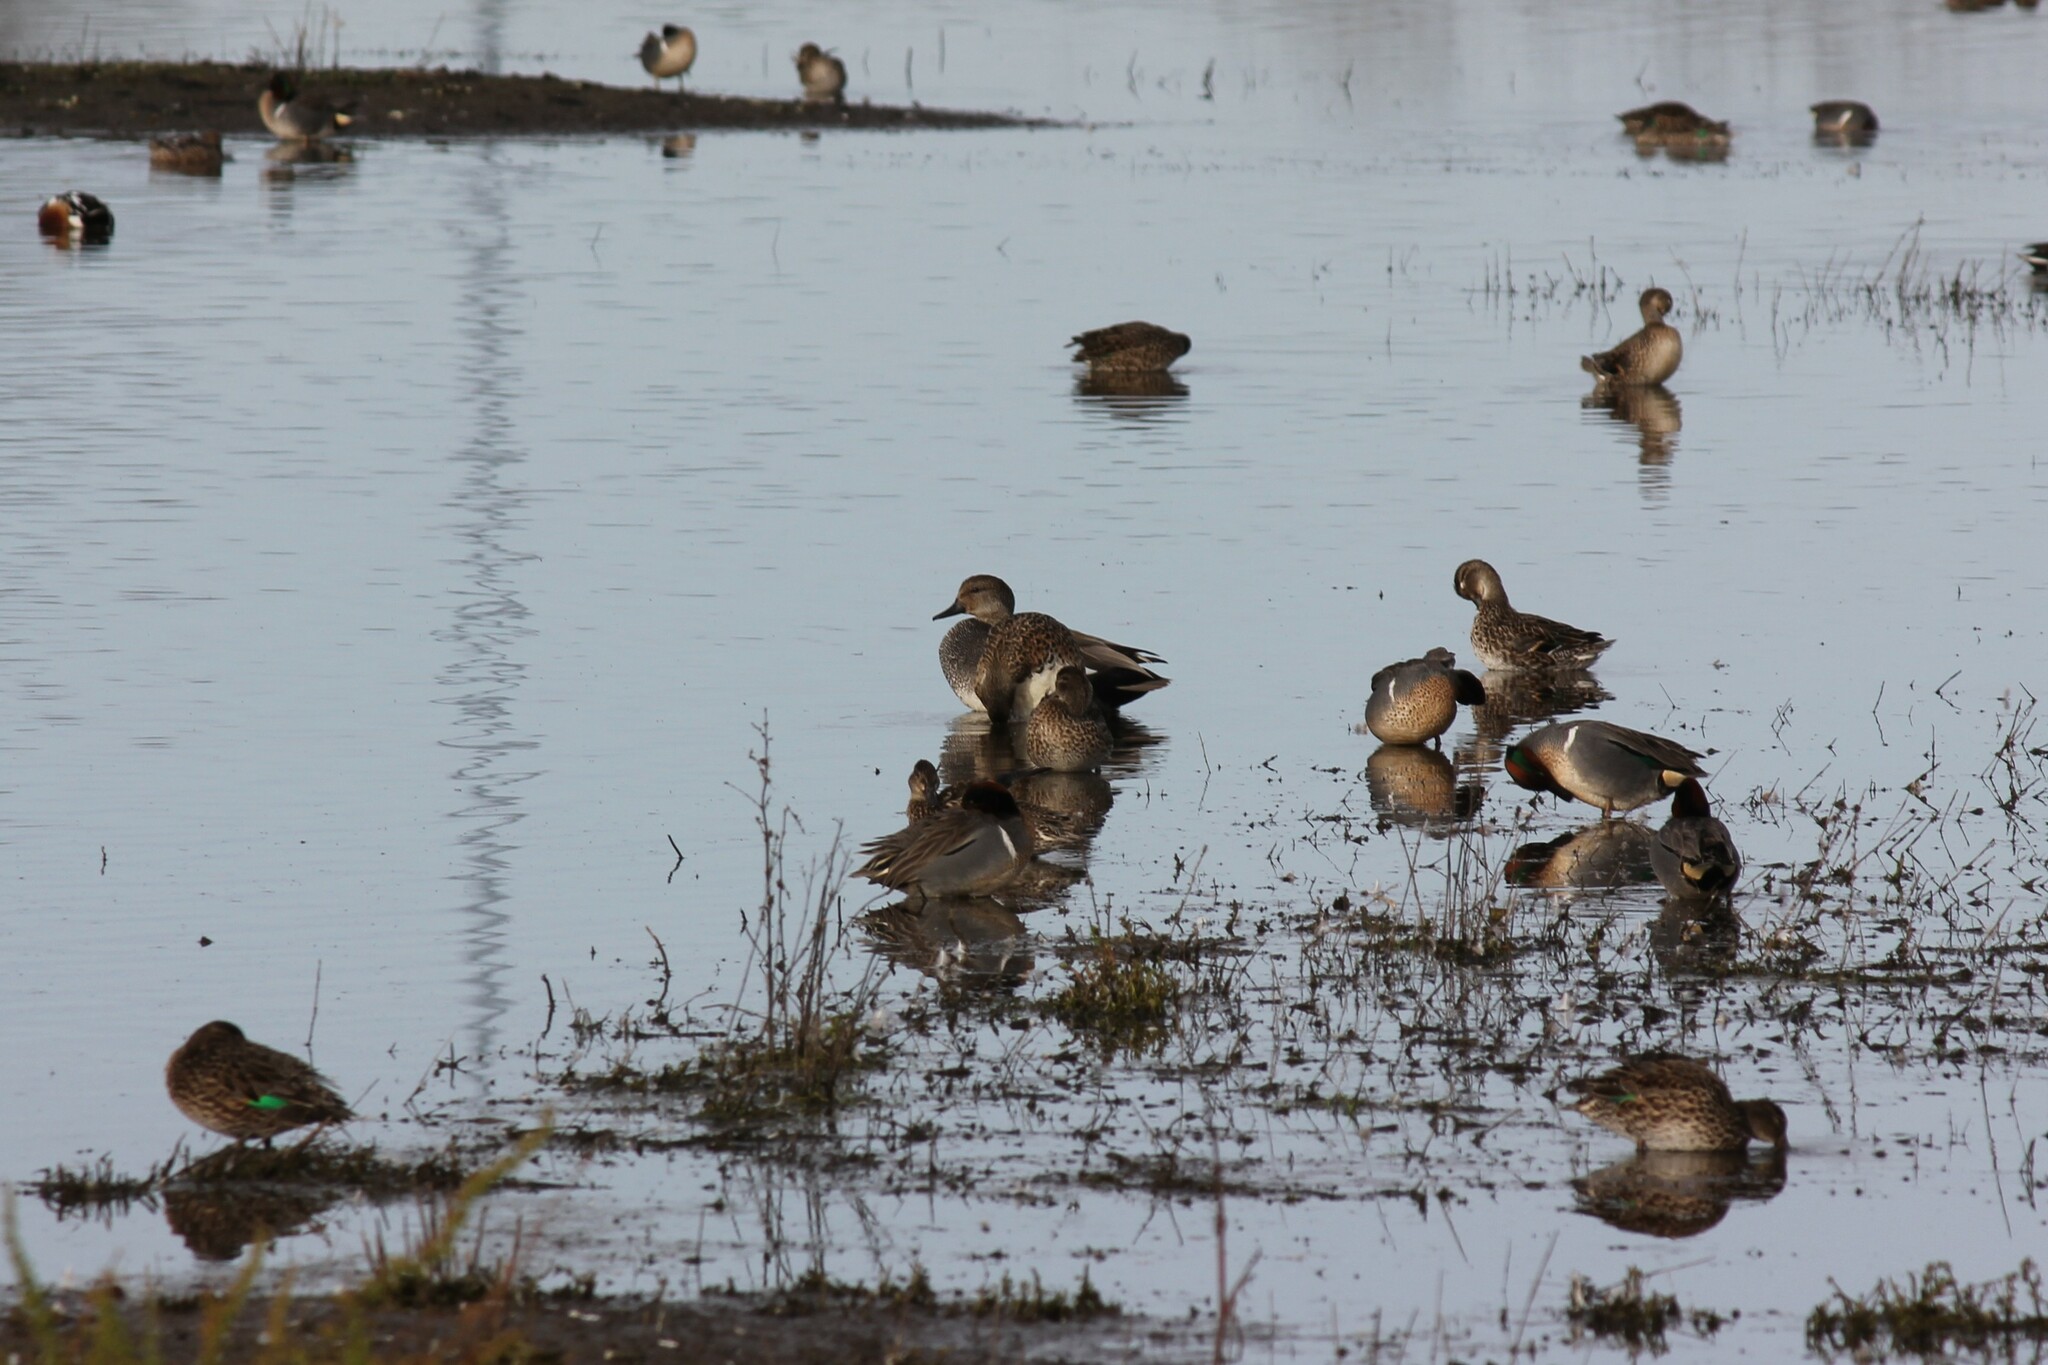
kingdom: Animalia
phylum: Chordata
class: Aves
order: Anseriformes
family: Anatidae
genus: Anas
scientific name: Anas crecca
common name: Eurasian teal
